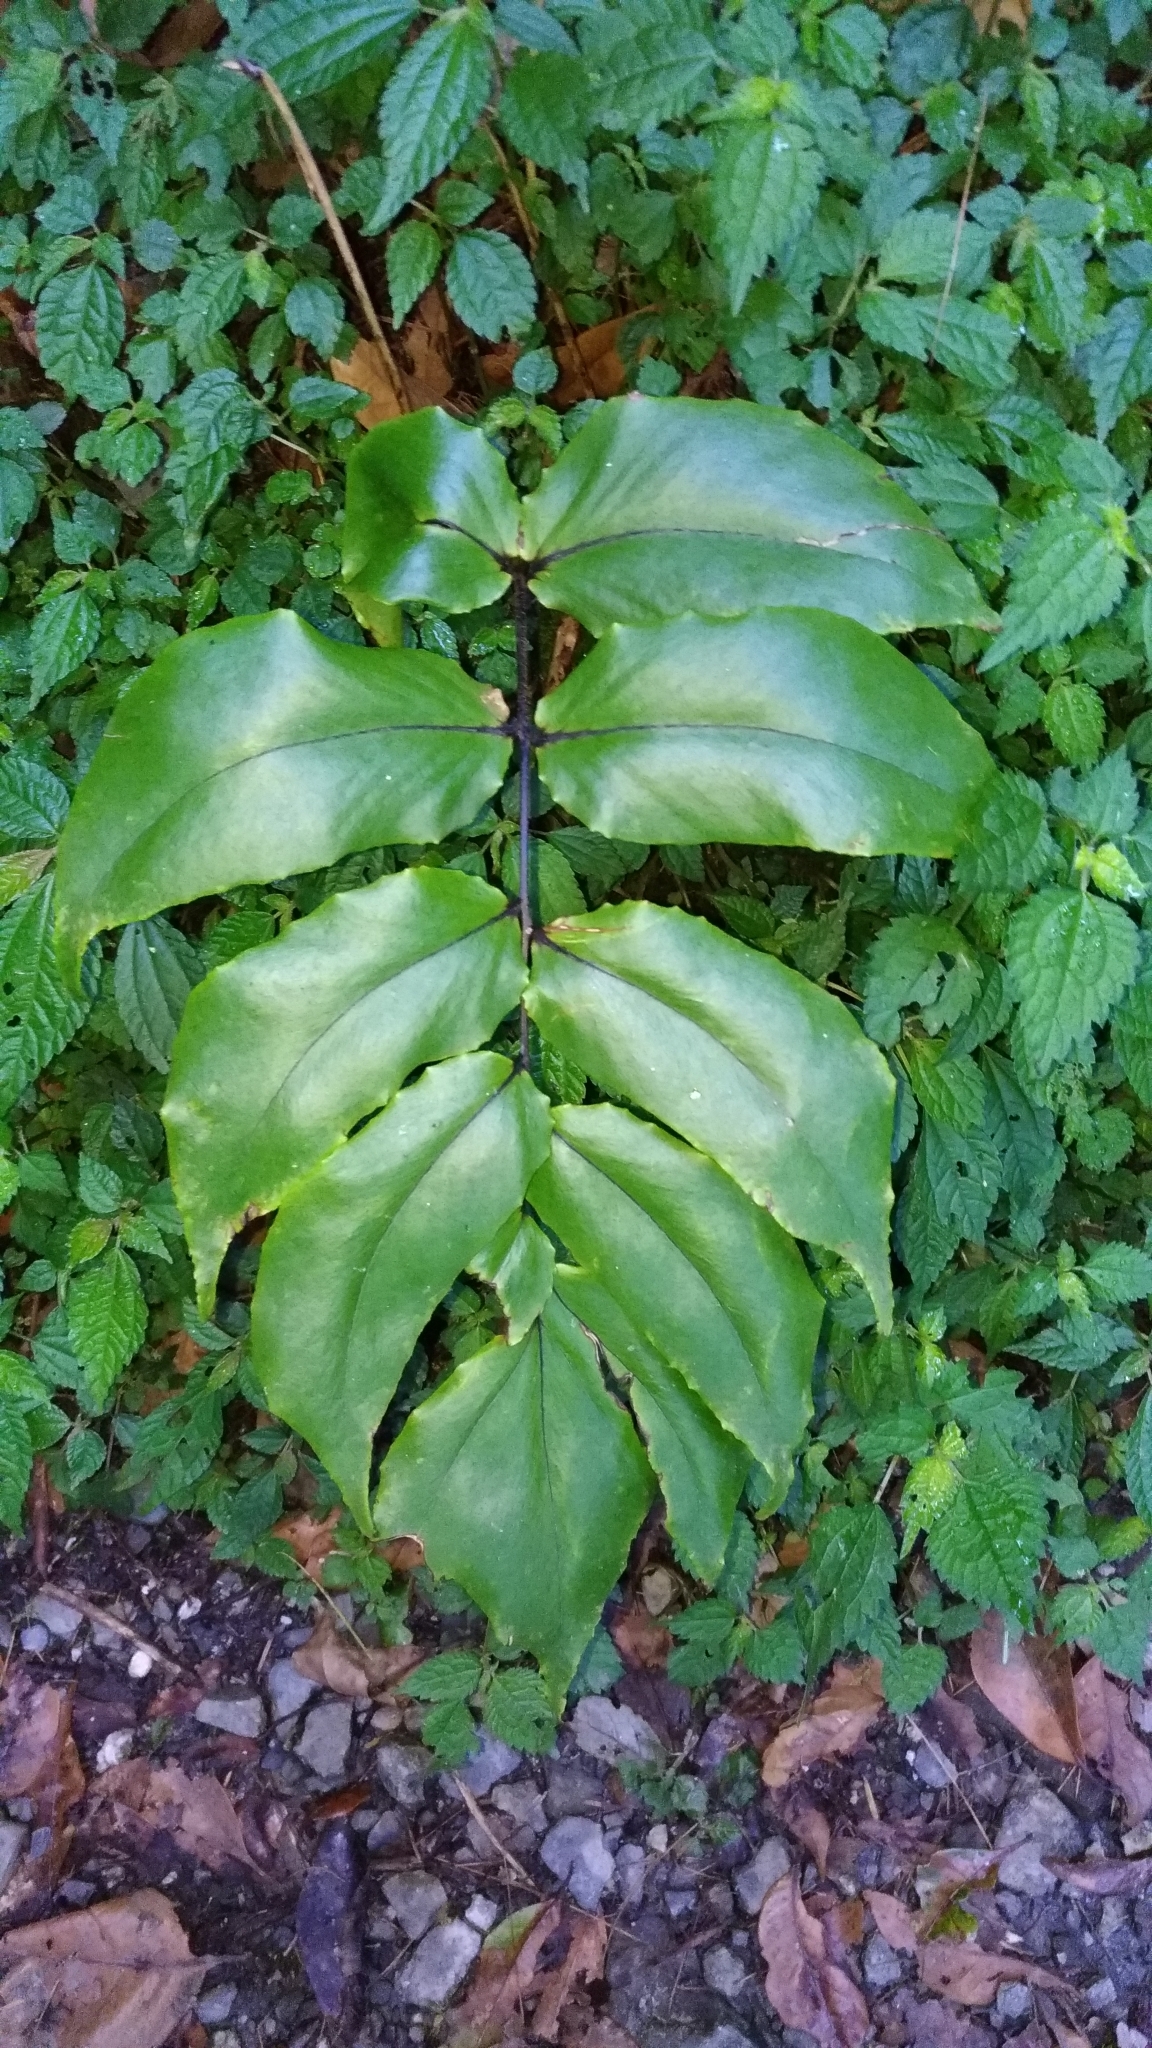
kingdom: Plantae
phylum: Tracheophyta
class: Polypodiopsida
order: Polypodiales
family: Dryopteridaceae
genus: Cyrtomium
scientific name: Cyrtomium macrophyllum
